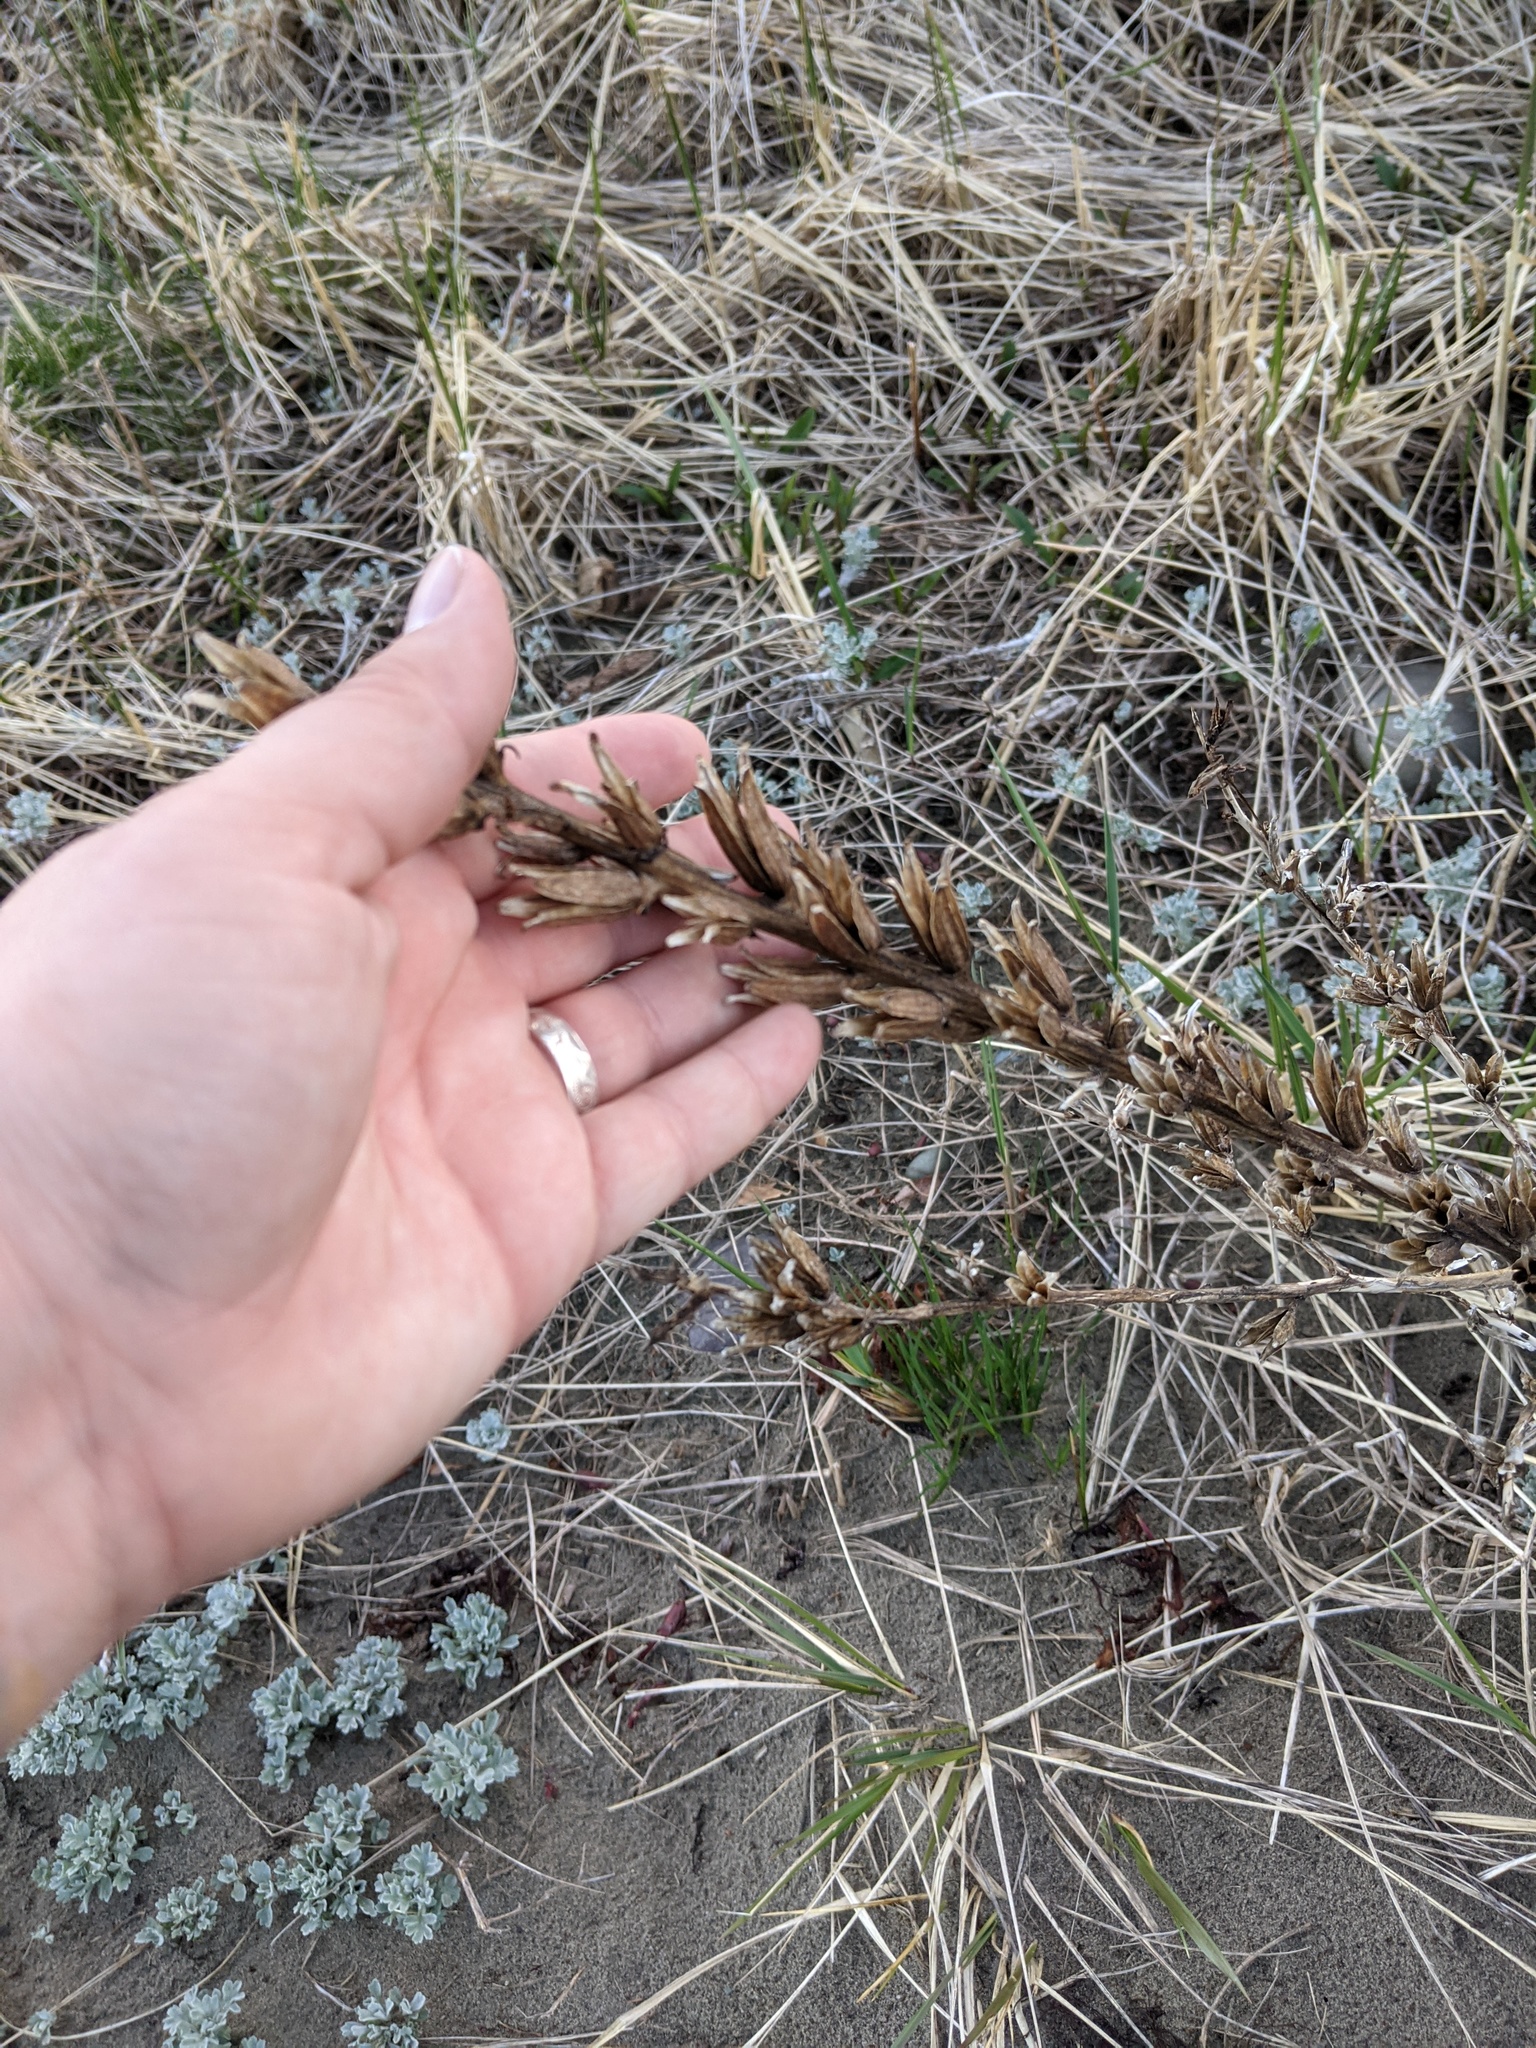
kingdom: Plantae
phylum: Tracheophyta
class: Magnoliopsida
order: Myrtales
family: Onagraceae
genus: Oenothera
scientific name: Oenothera biennis
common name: Common evening-primrose
